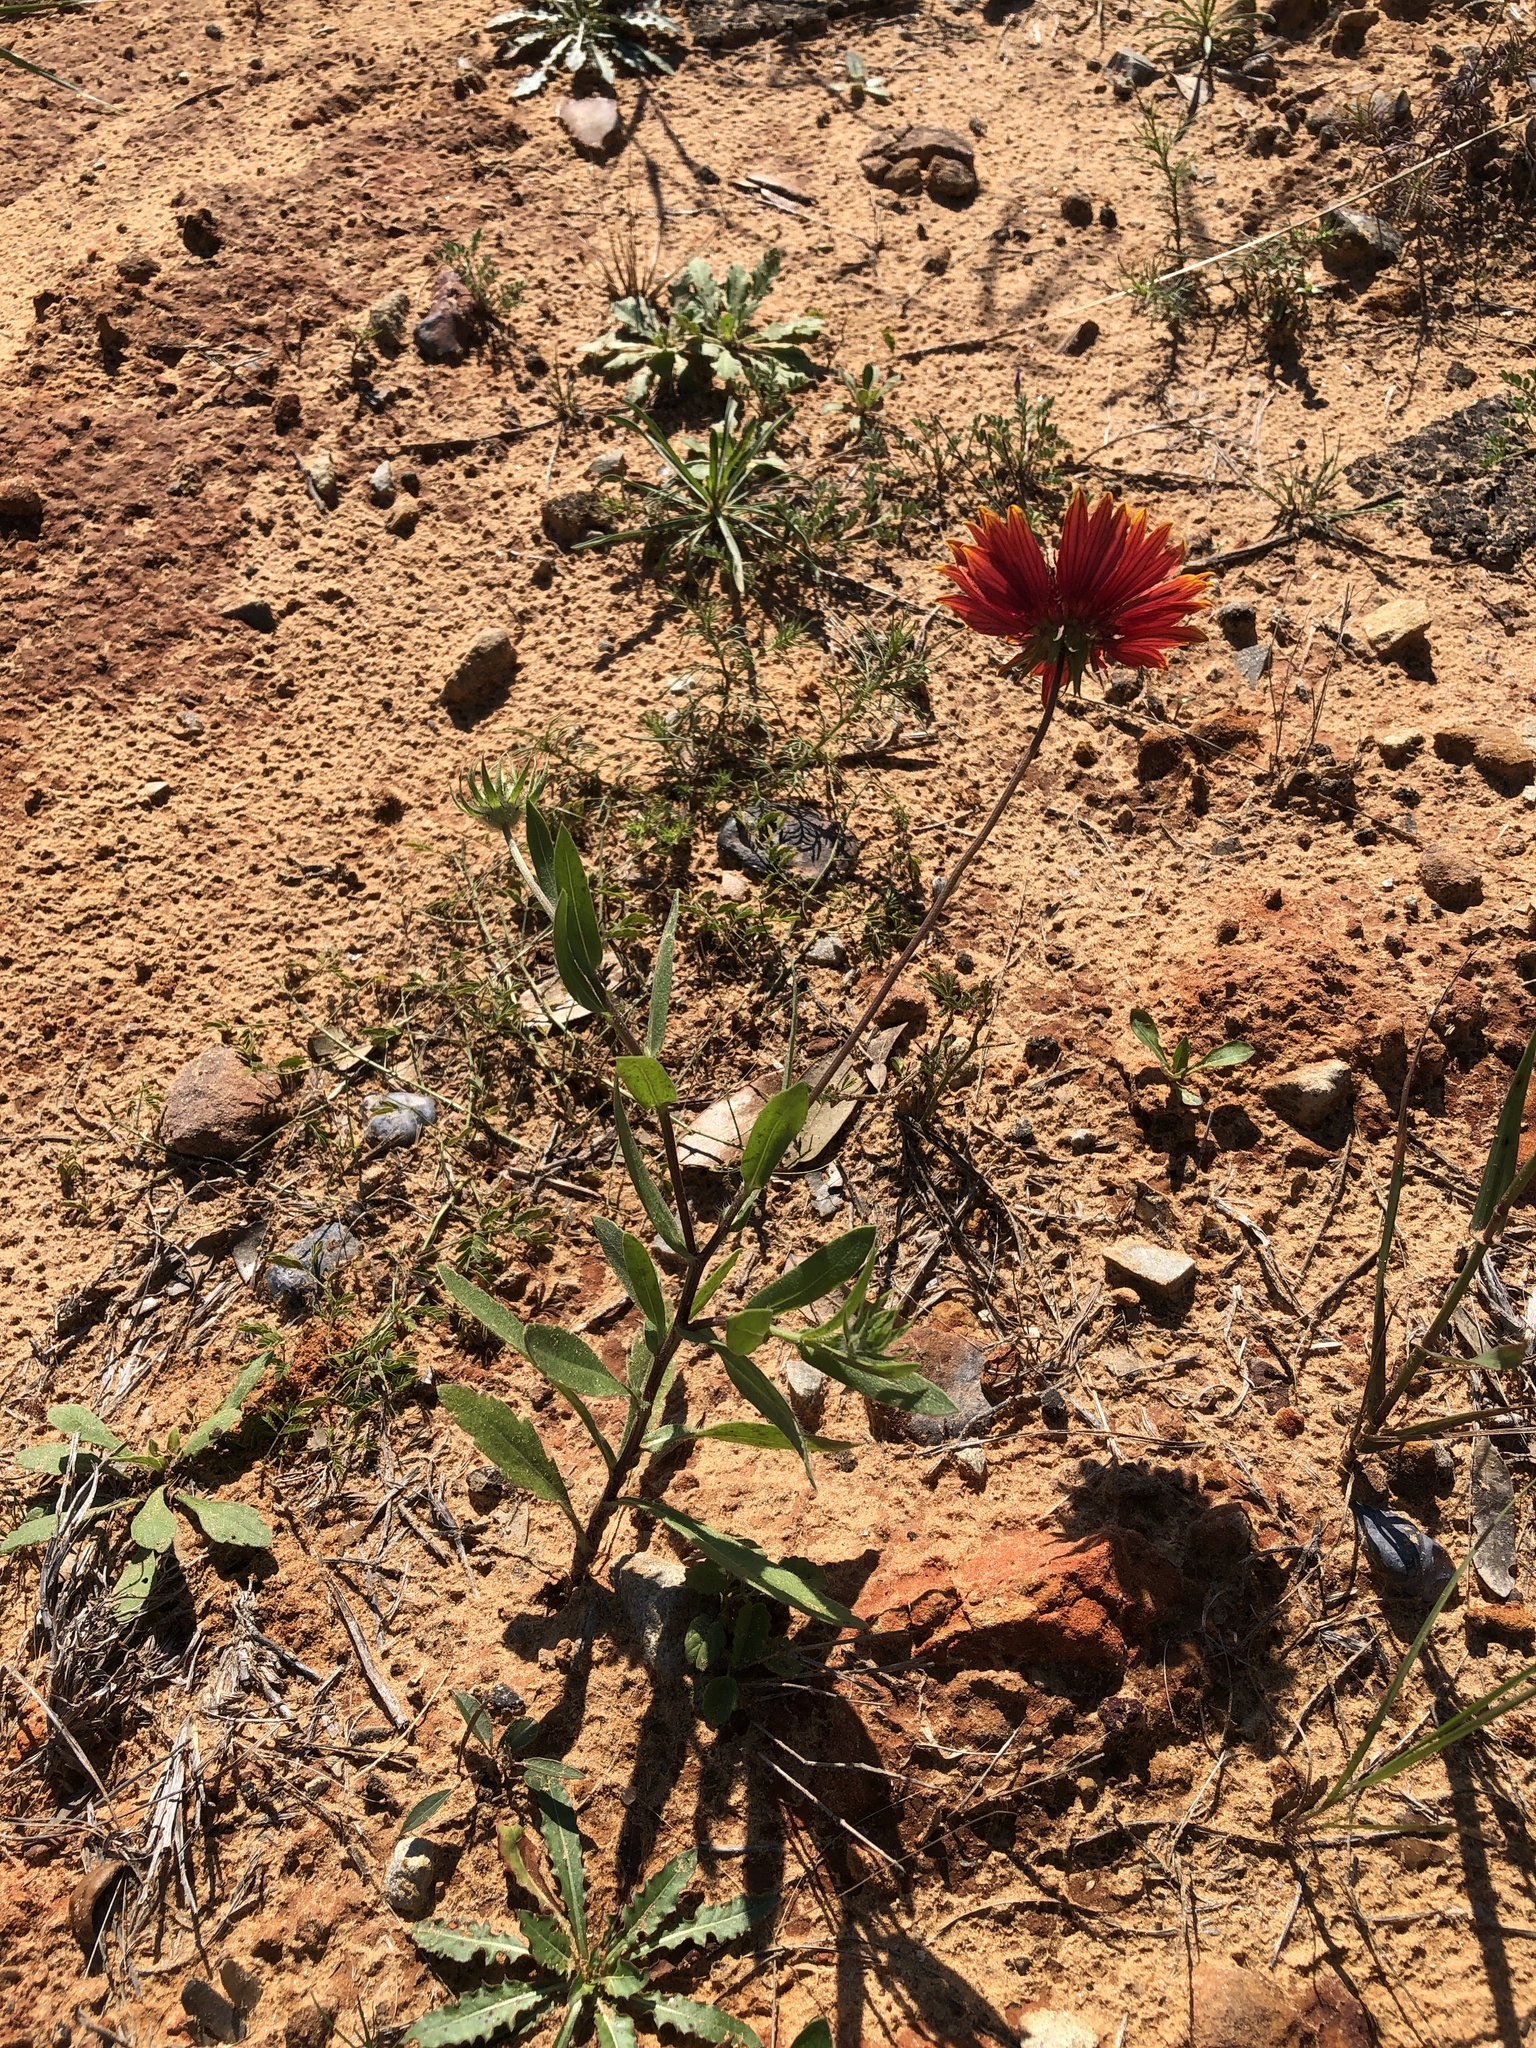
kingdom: Plantae
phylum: Tracheophyta
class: Magnoliopsida
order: Asterales
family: Asteraceae
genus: Gaillardia
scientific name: Gaillardia pulchella
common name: Firewheel
